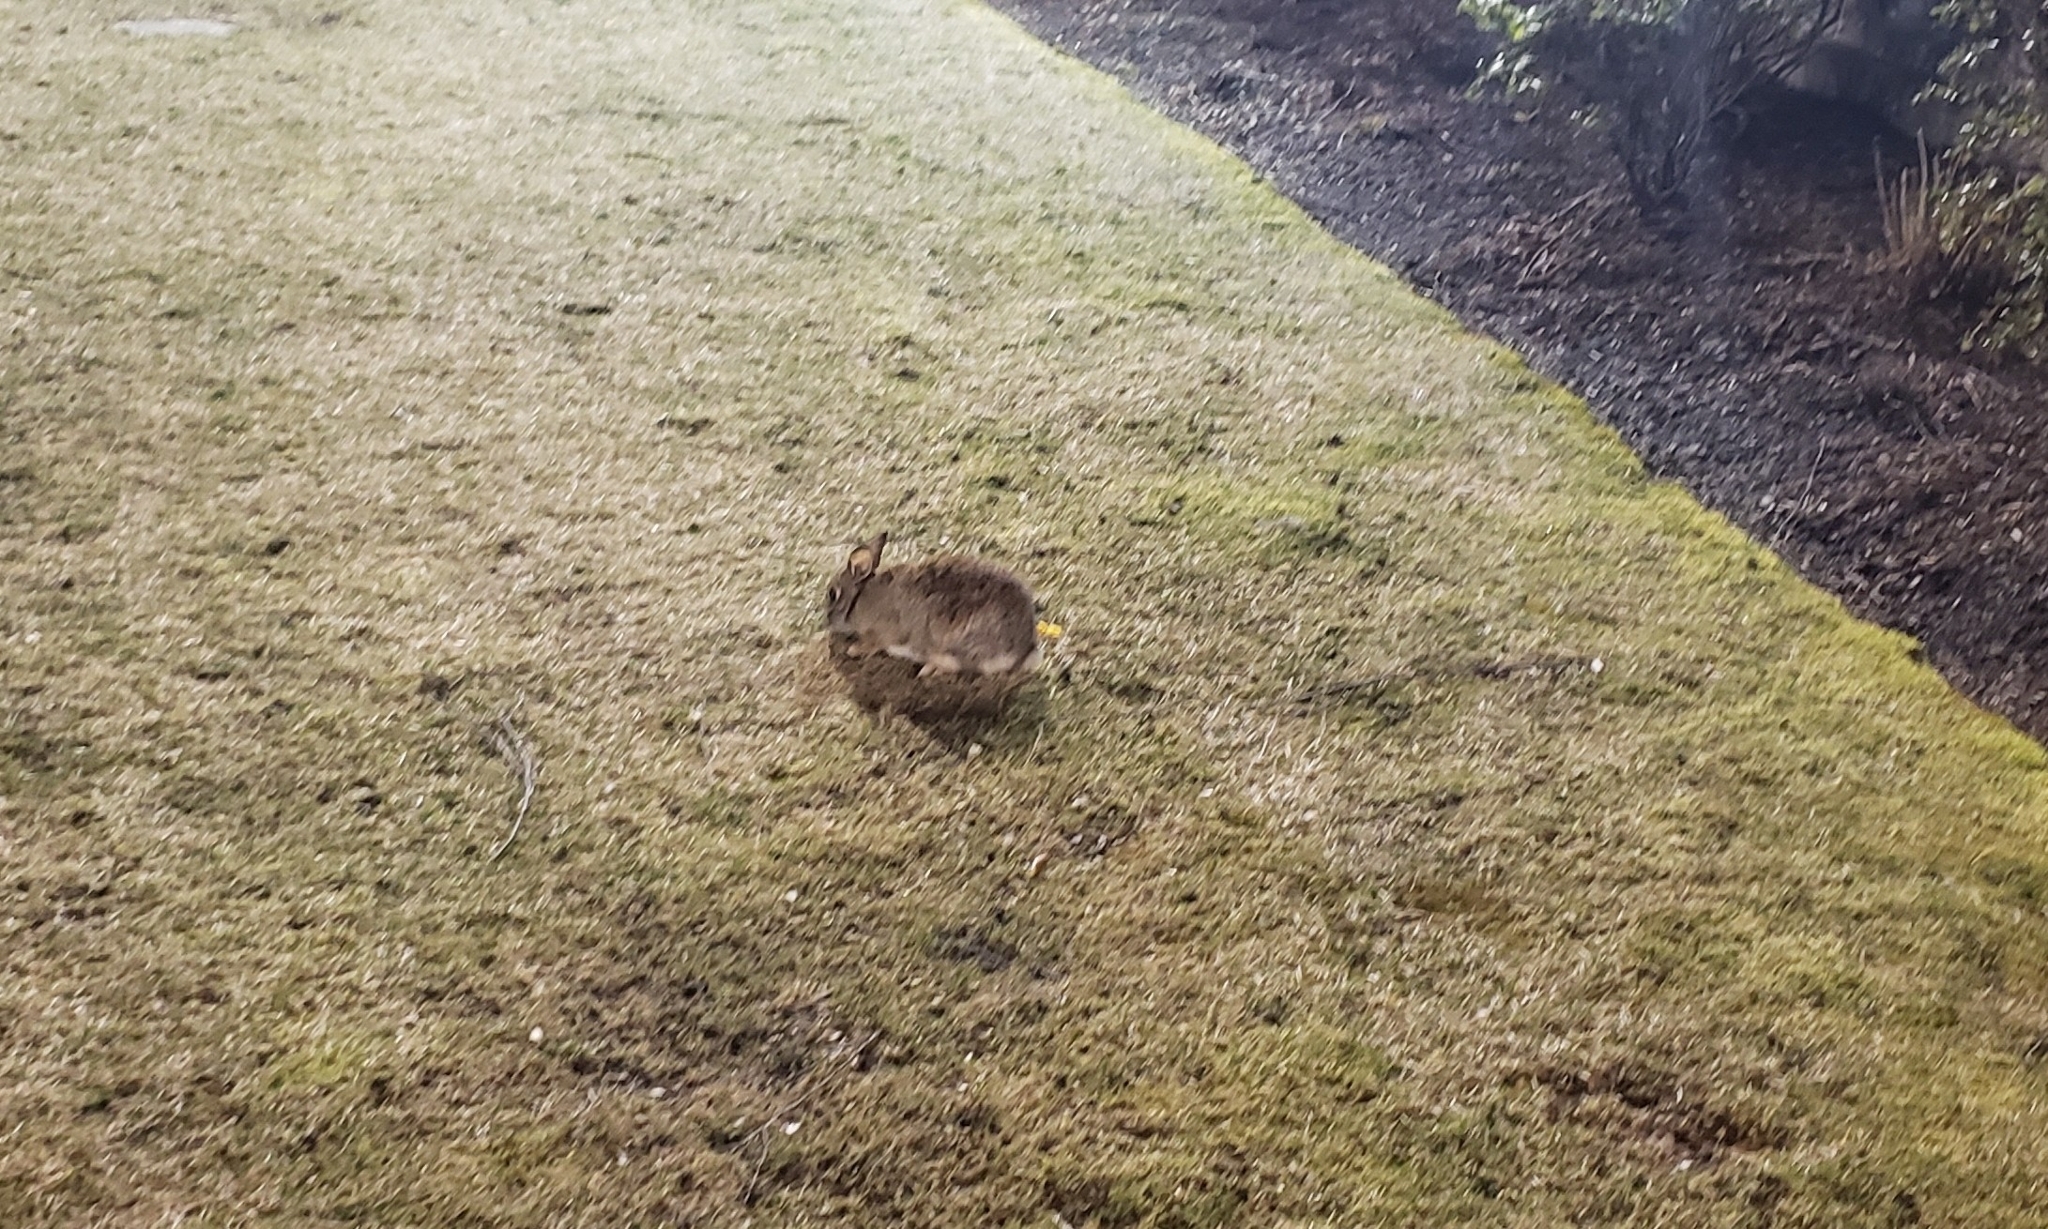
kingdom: Animalia
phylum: Chordata
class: Mammalia
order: Lagomorpha
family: Leporidae
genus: Sylvilagus
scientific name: Sylvilagus floridanus
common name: Eastern cottontail
